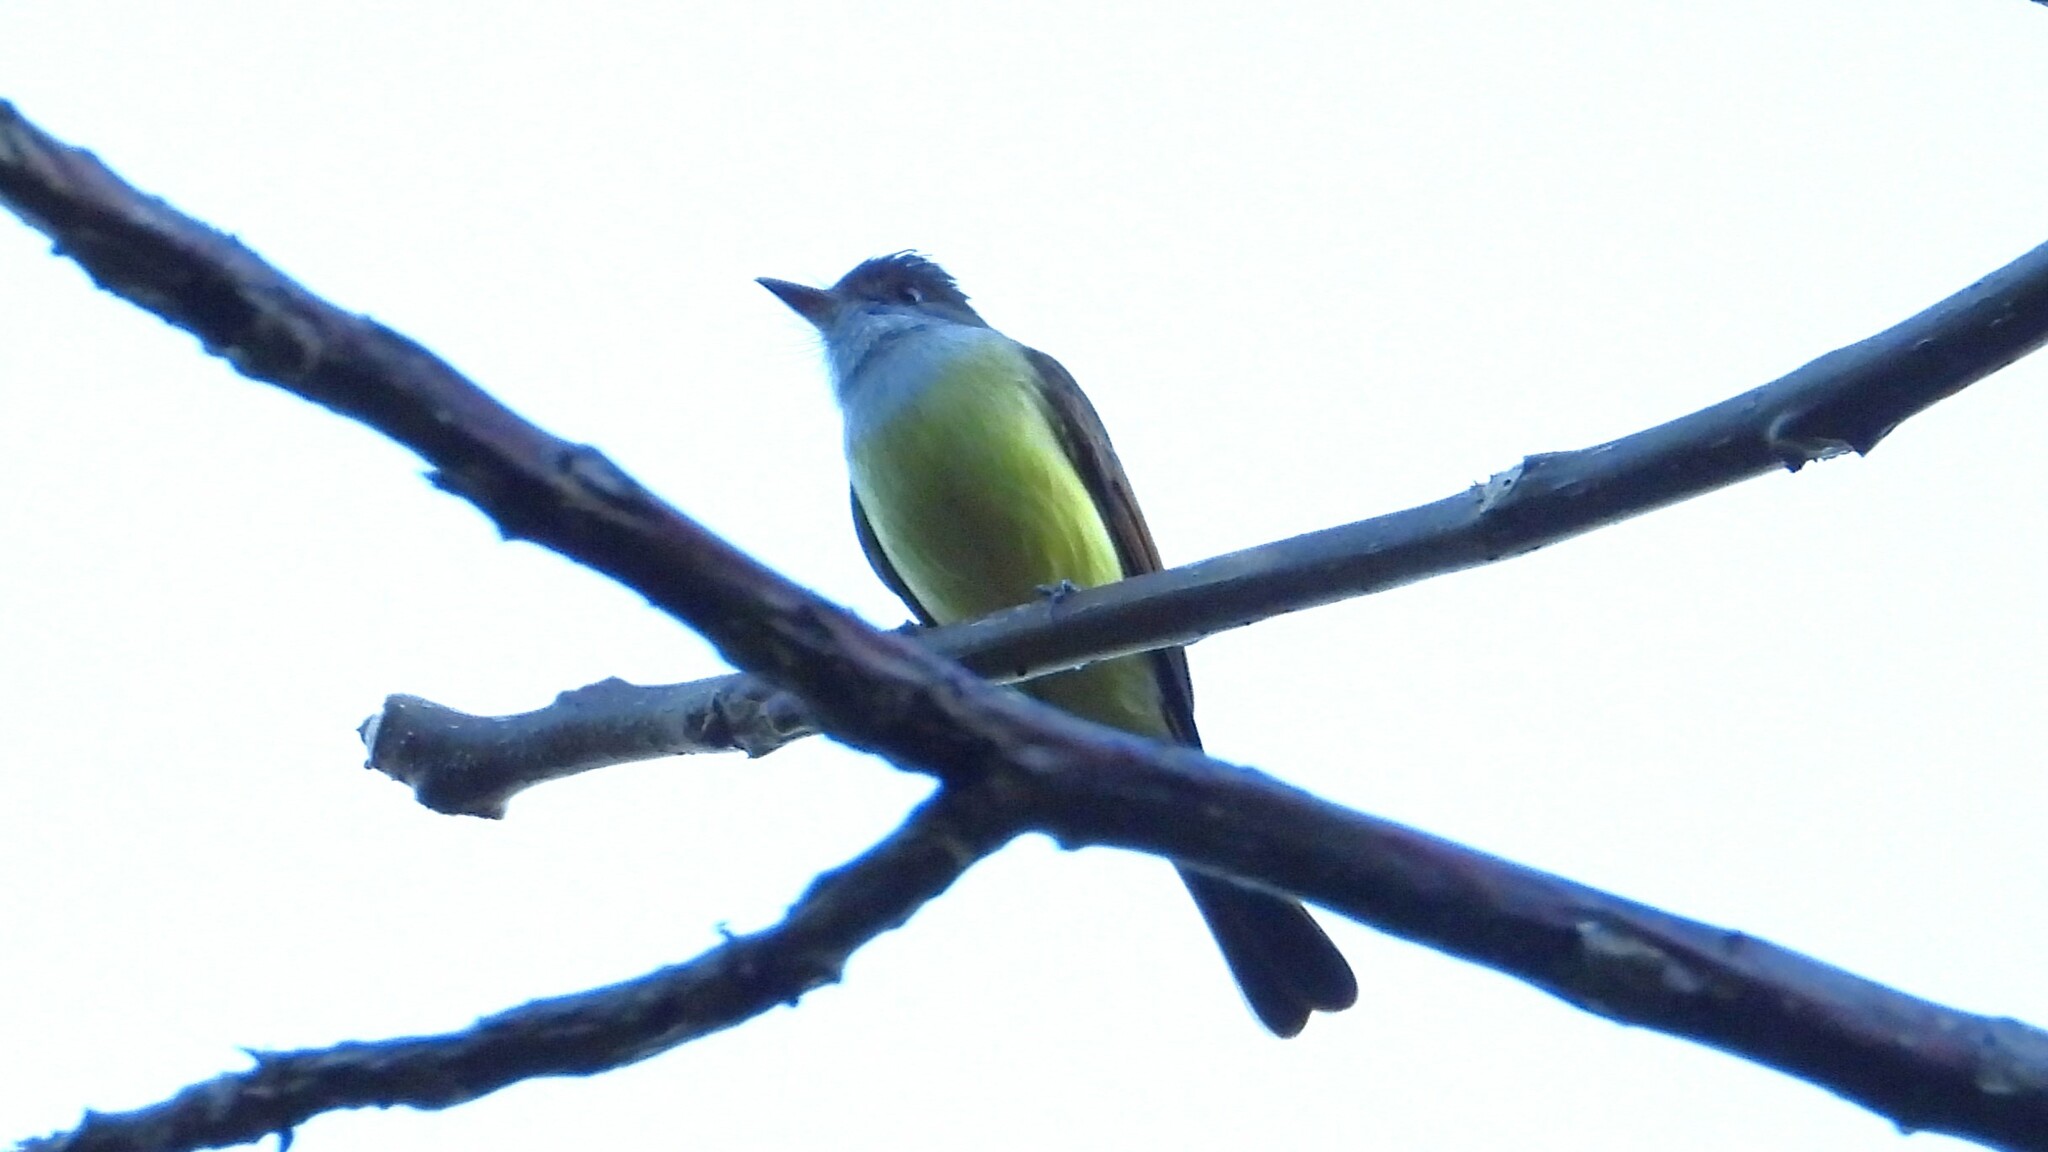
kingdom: Animalia
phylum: Chordata
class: Aves
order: Passeriformes
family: Tyrannidae
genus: Myiarchus
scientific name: Myiarchus tuberculifer
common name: Dusky-capped flycatcher
